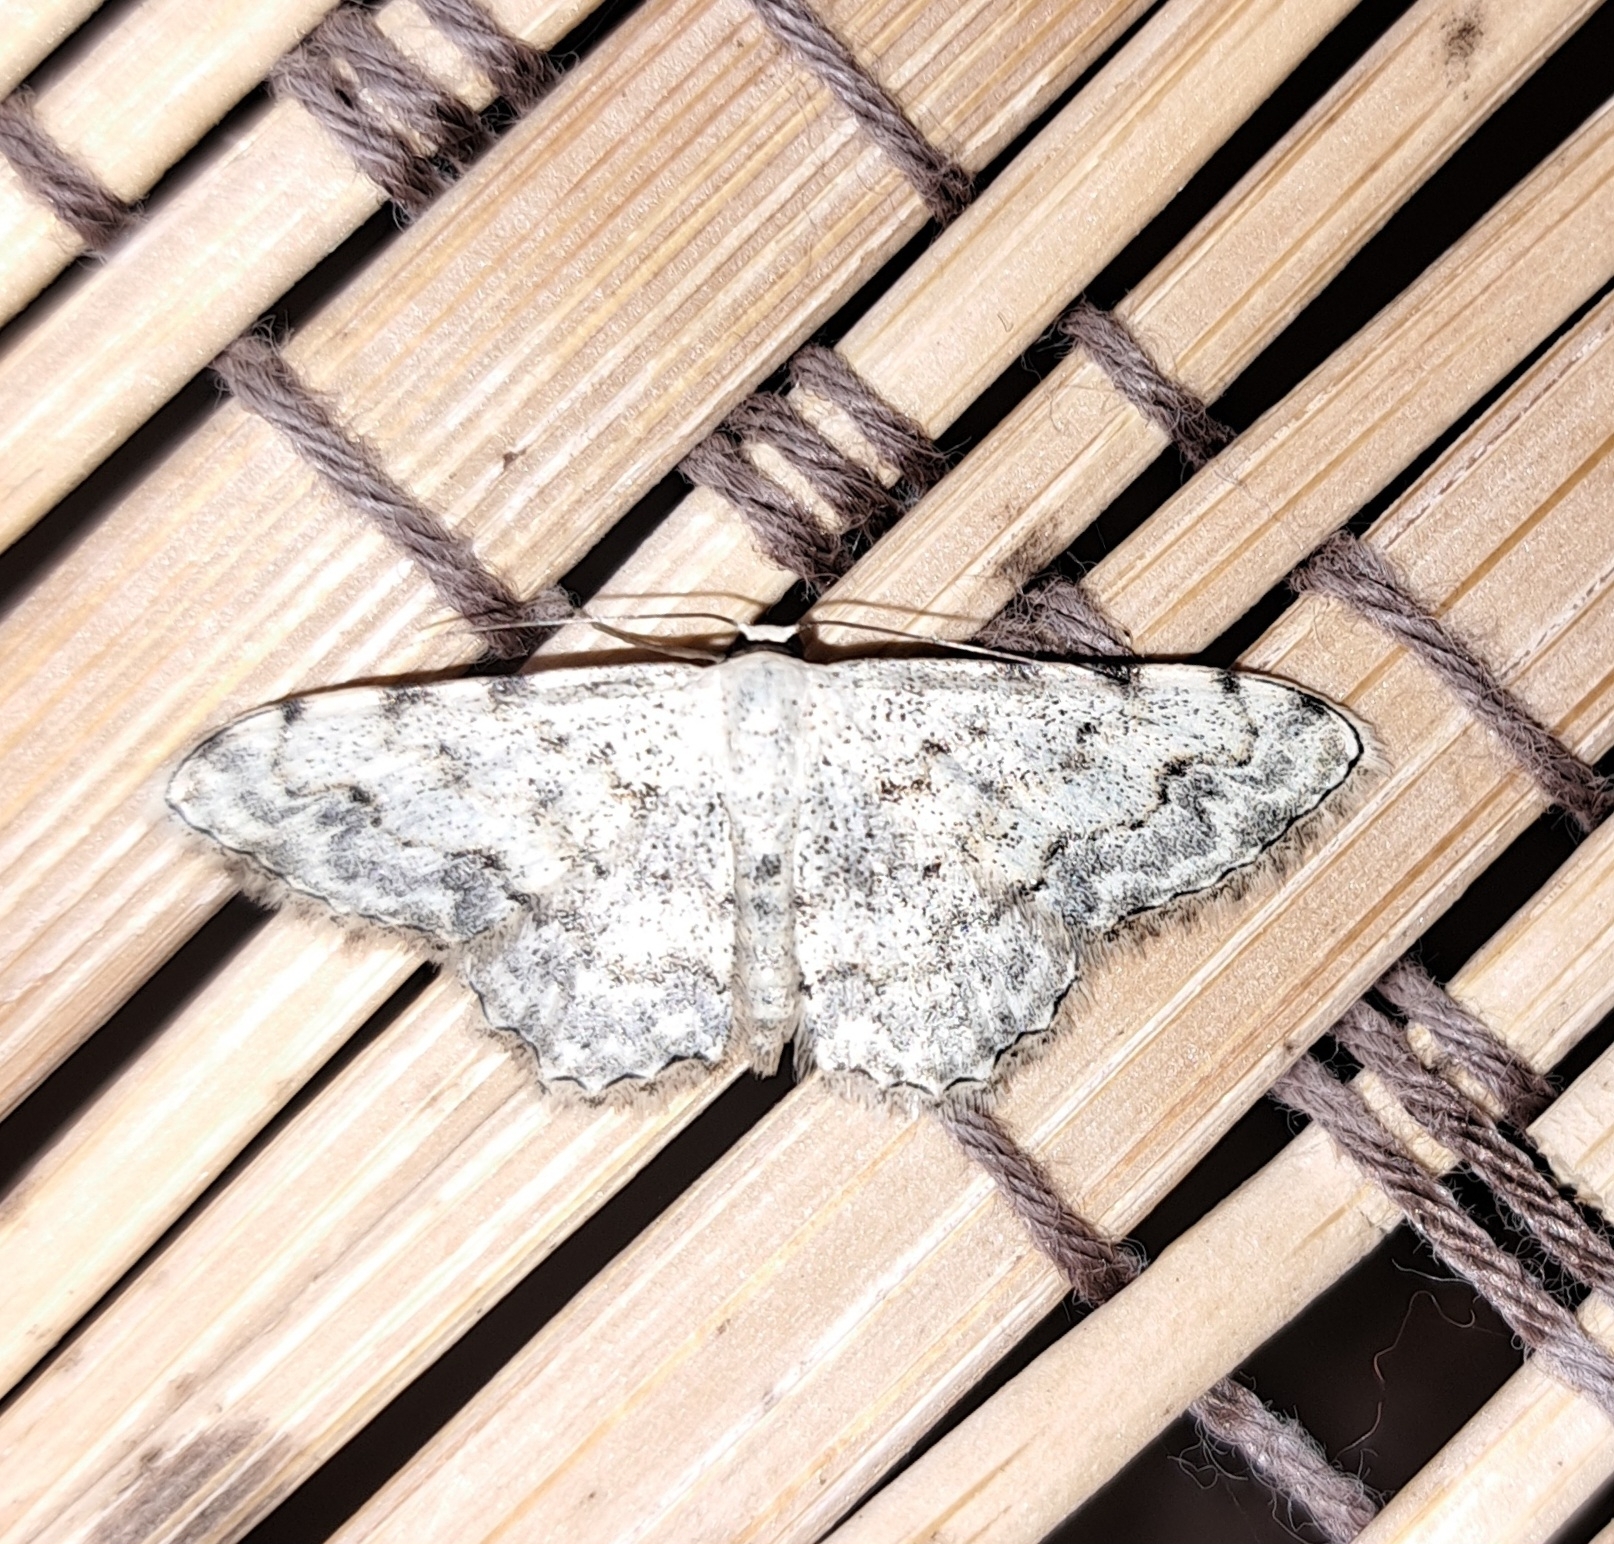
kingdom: Animalia
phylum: Arthropoda
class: Insecta
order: Lepidoptera
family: Geometridae
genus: Scopula
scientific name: Scopula submutata
